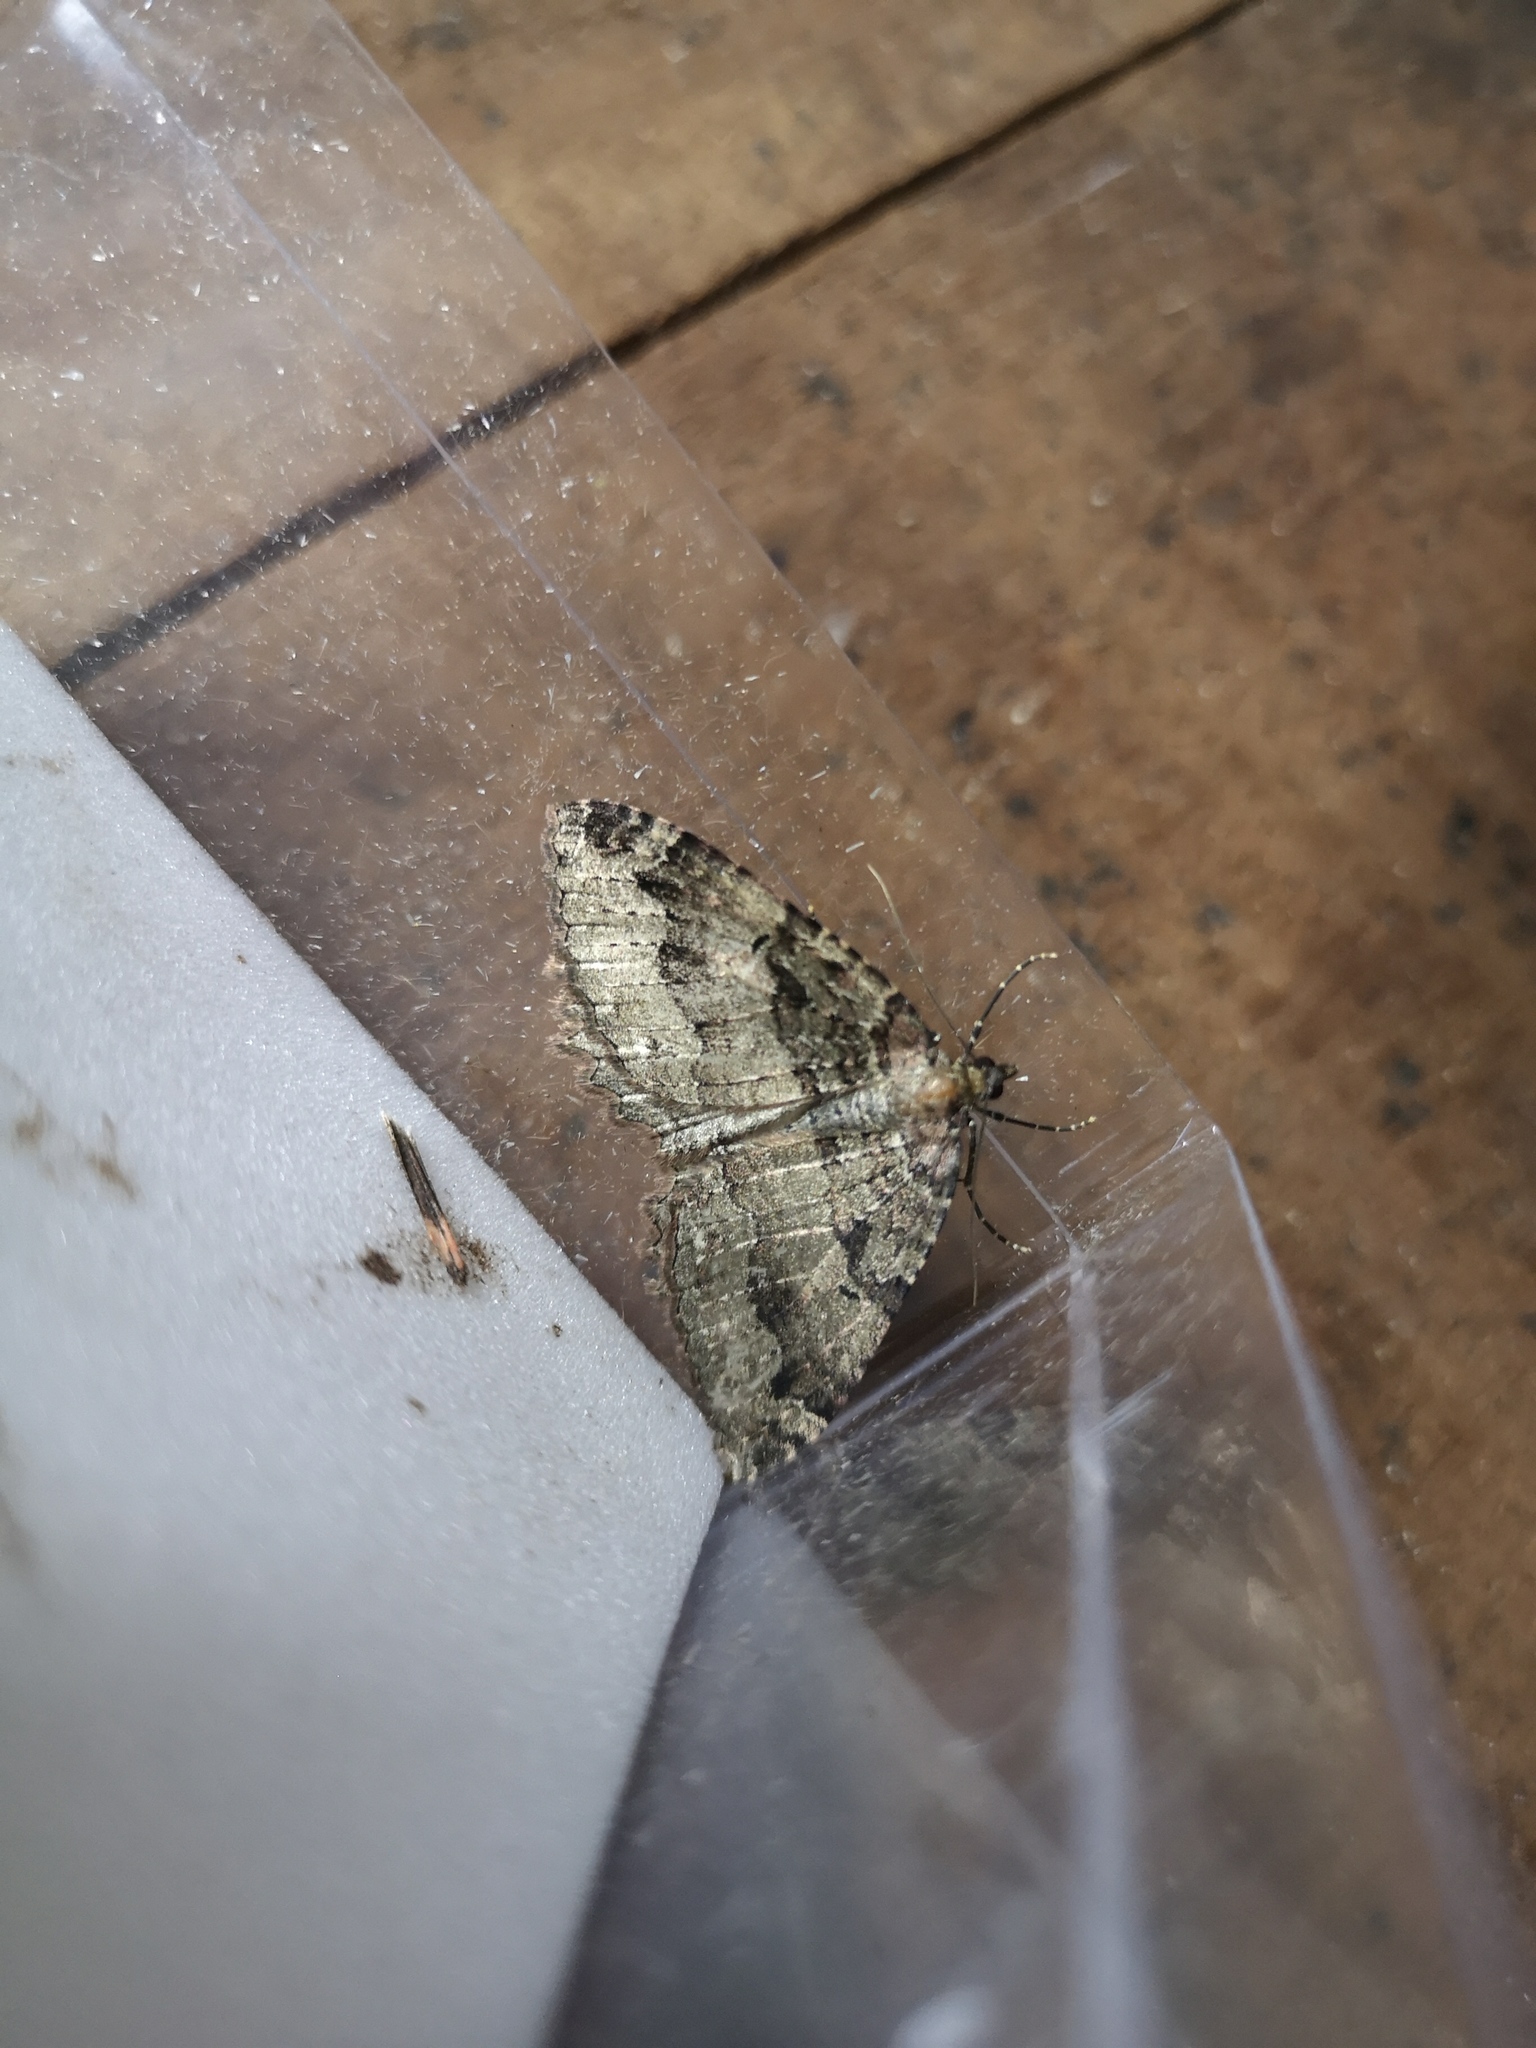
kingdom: Animalia
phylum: Arthropoda
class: Insecta
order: Lepidoptera
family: Geometridae
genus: Triphosa
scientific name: Triphosa dubitata
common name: Tissue
